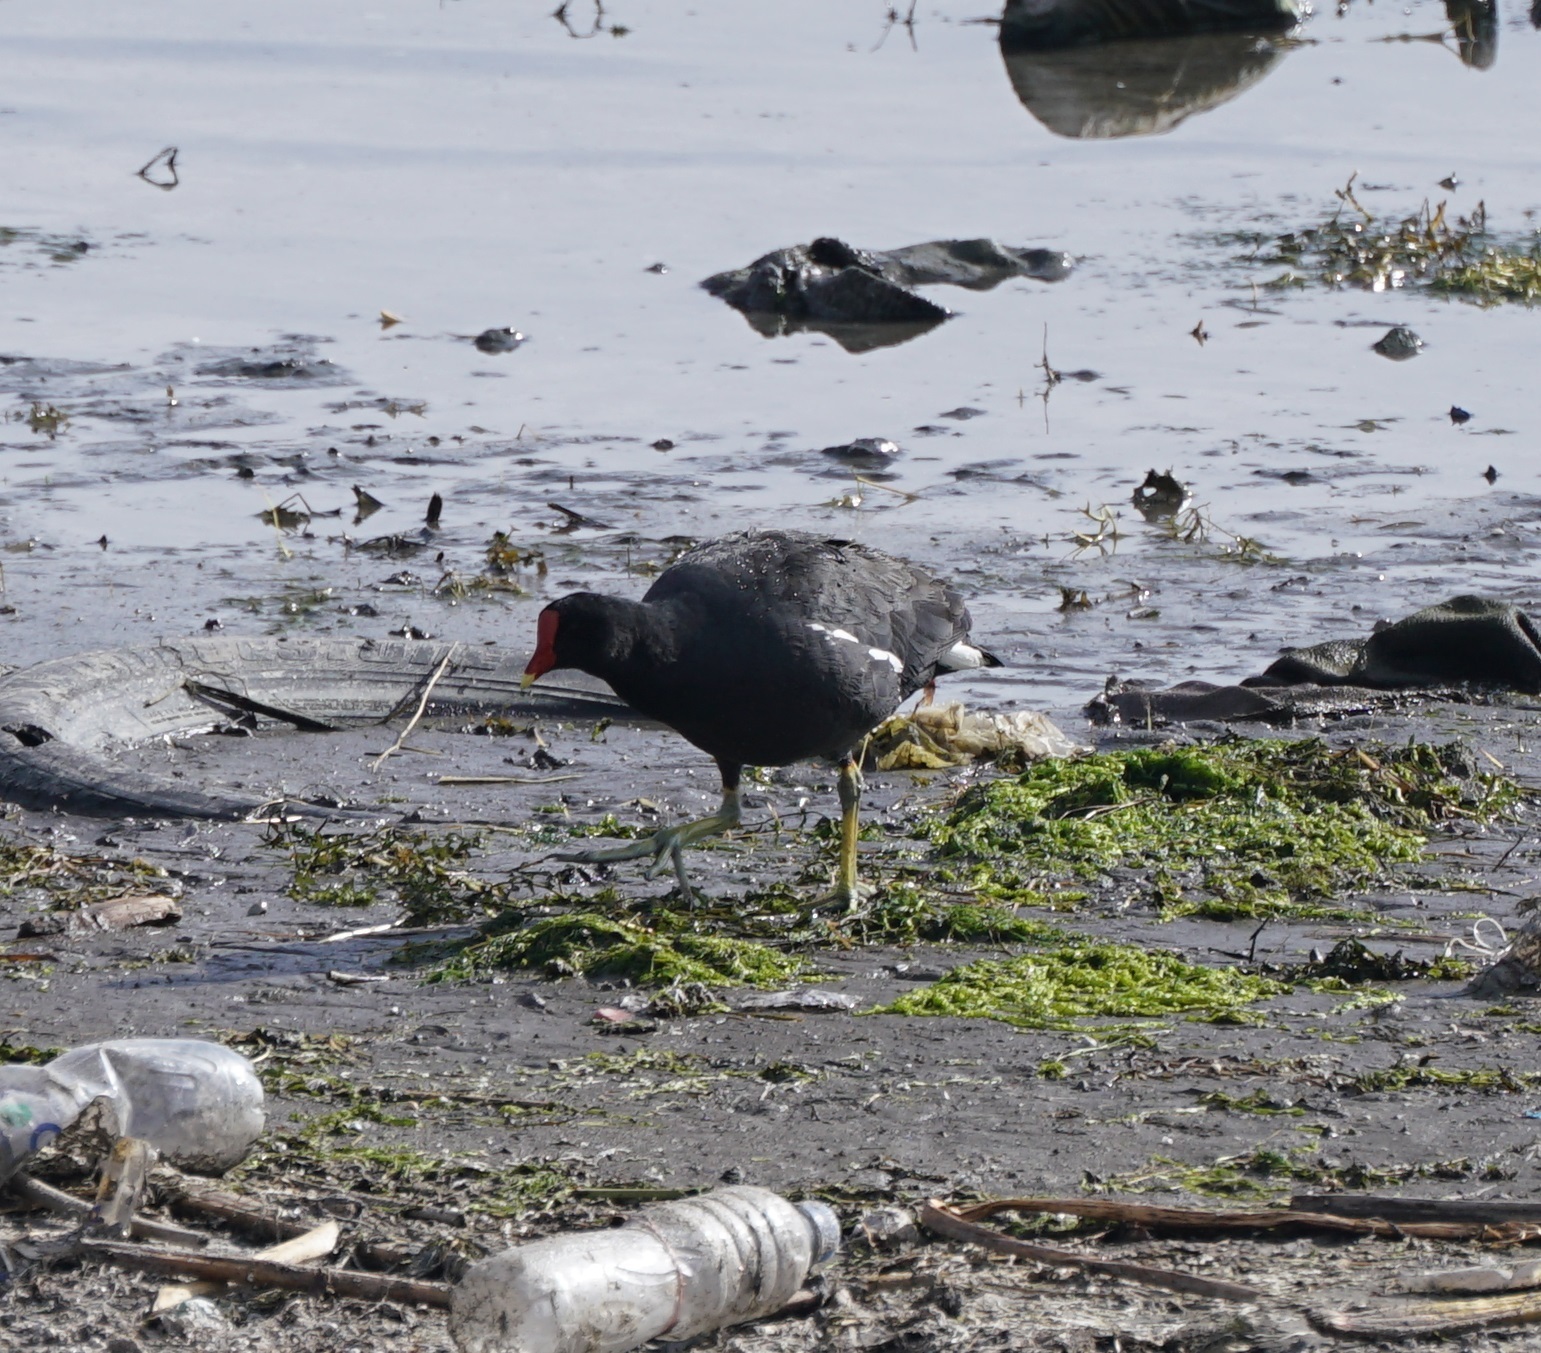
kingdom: Animalia
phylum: Chordata
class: Aves
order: Gruiformes
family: Rallidae
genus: Gallinula
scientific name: Gallinula chloropus
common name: Common moorhen
